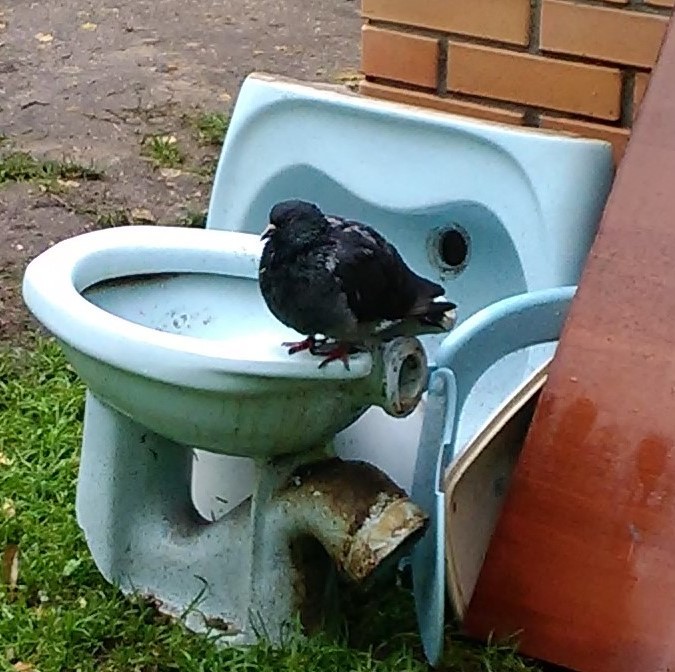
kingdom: Animalia
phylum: Chordata
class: Aves
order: Columbiformes
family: Columbidae
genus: Columba
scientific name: Columba livia
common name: Rock pigeon
